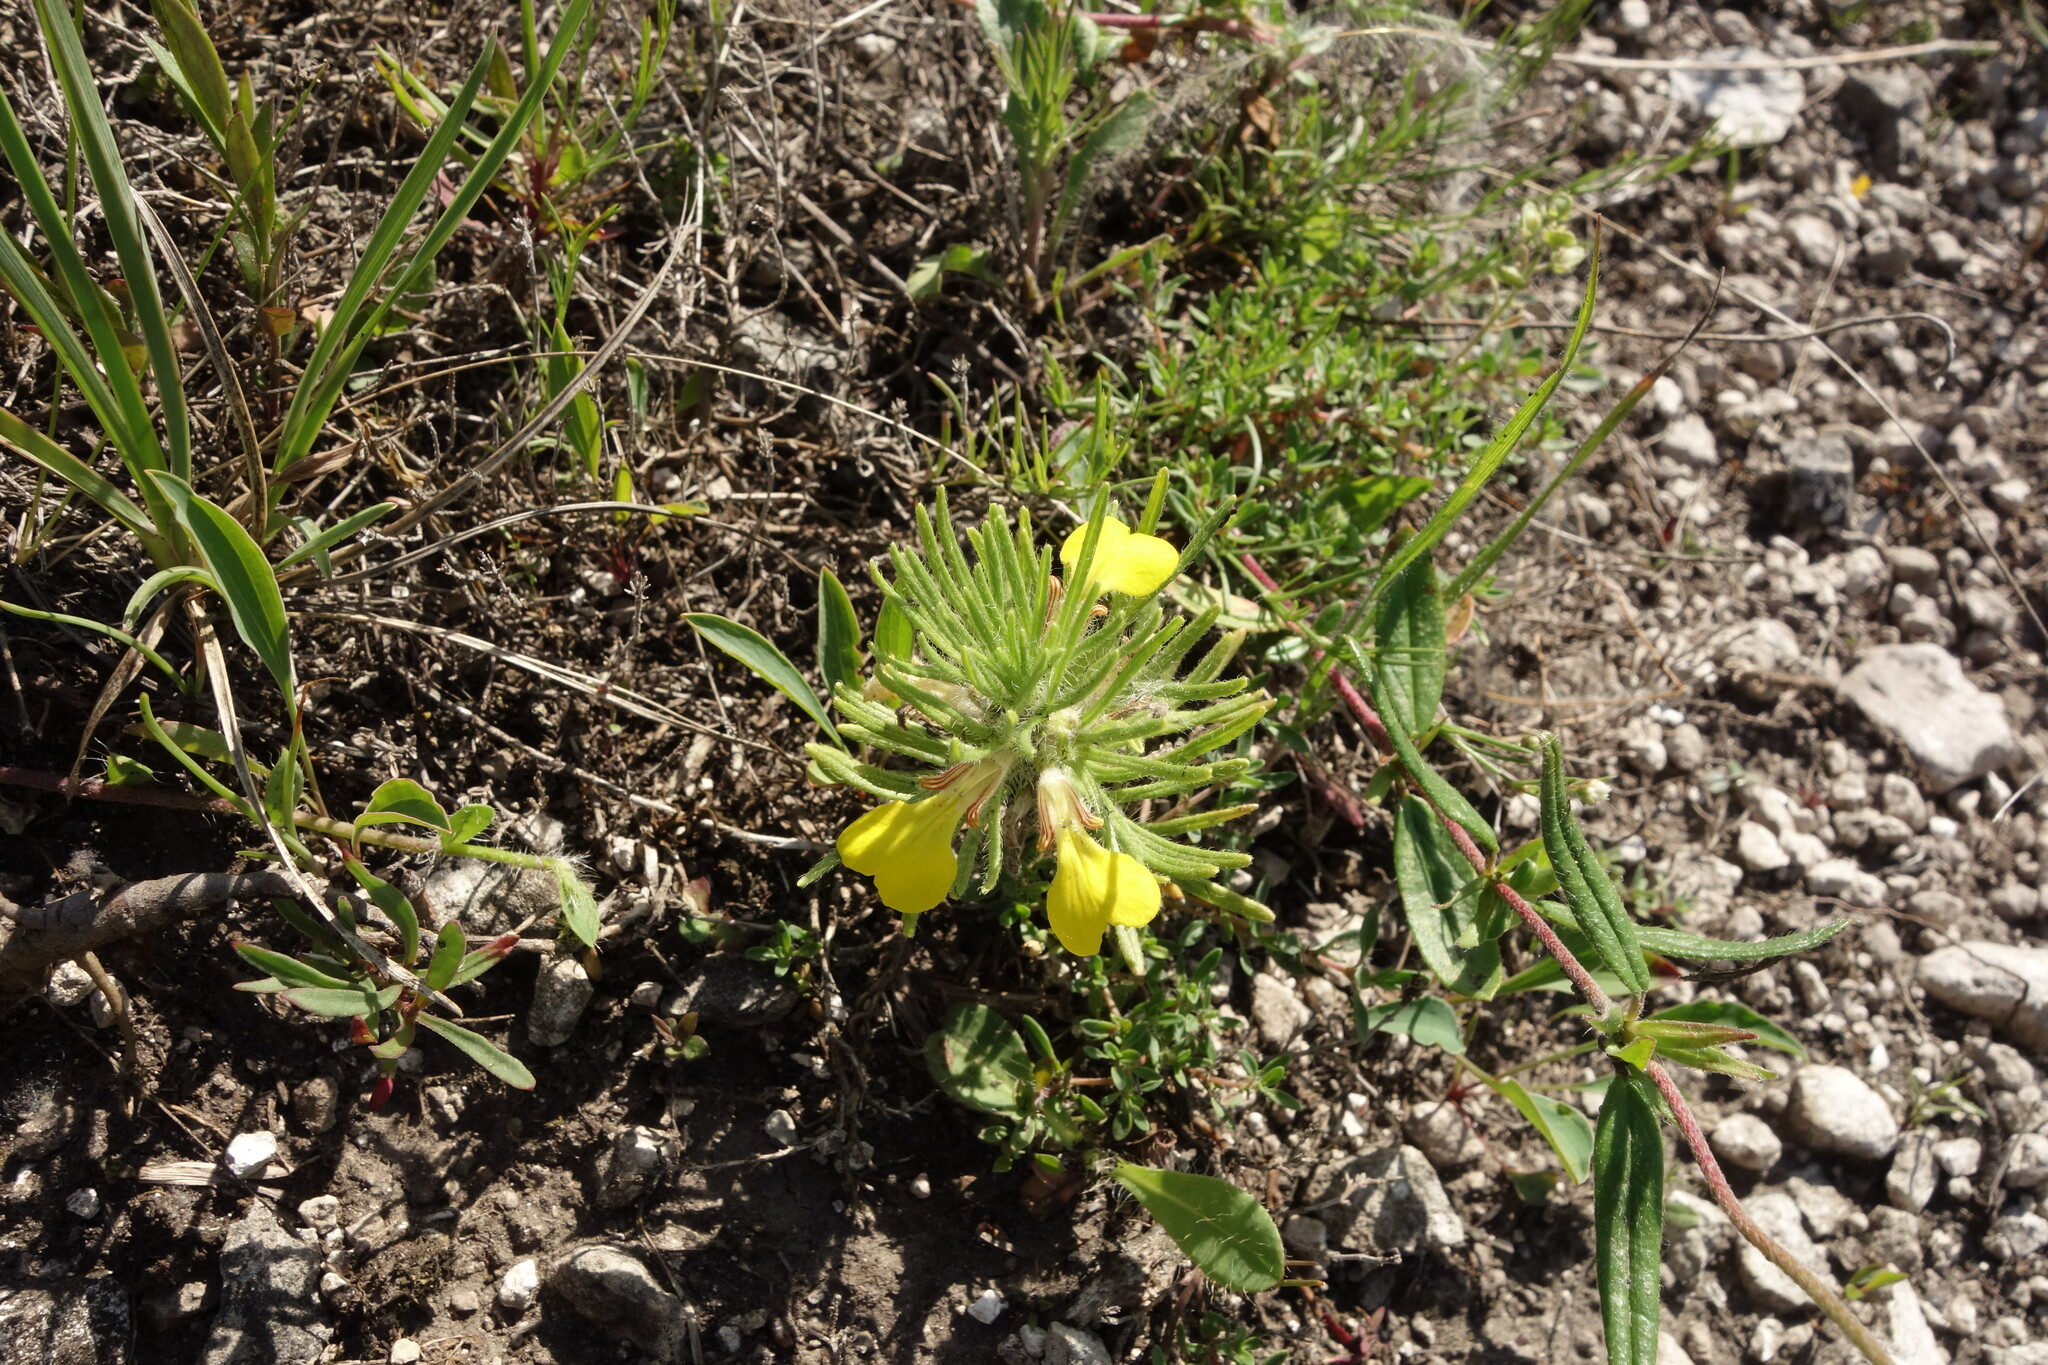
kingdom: Plantae
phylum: Tracheophyta
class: Magnoliopsida
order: Lamiales
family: Lamiaceae
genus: Ajuga
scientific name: Ajuga chamaepitys
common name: Ground-pine
